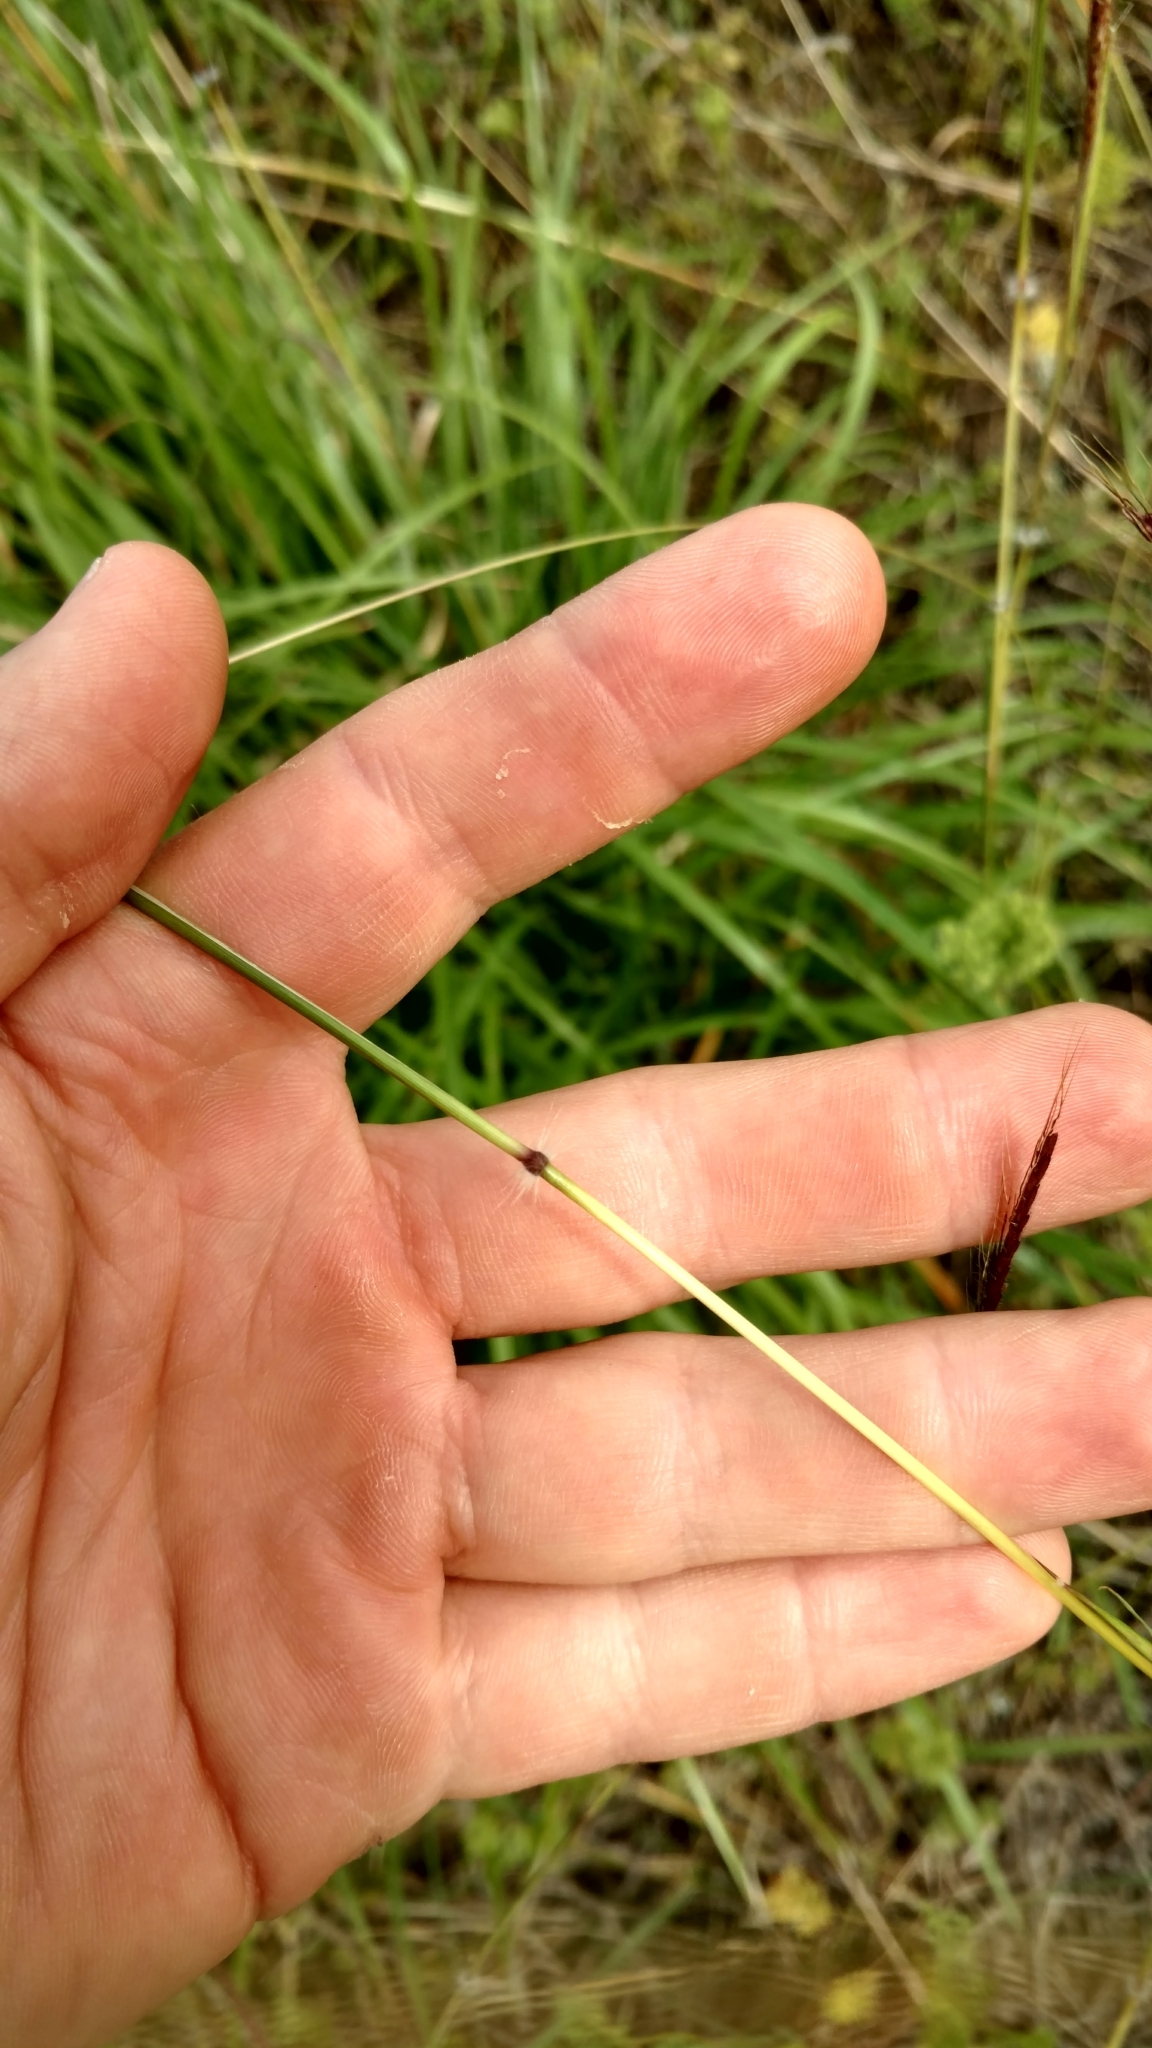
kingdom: Plantae
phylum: Tracheophyta
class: Liliopsida
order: Poales
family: Poaceae
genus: Dichanthium
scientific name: Dichanthium annulatum
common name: Kleberg's bluestem
